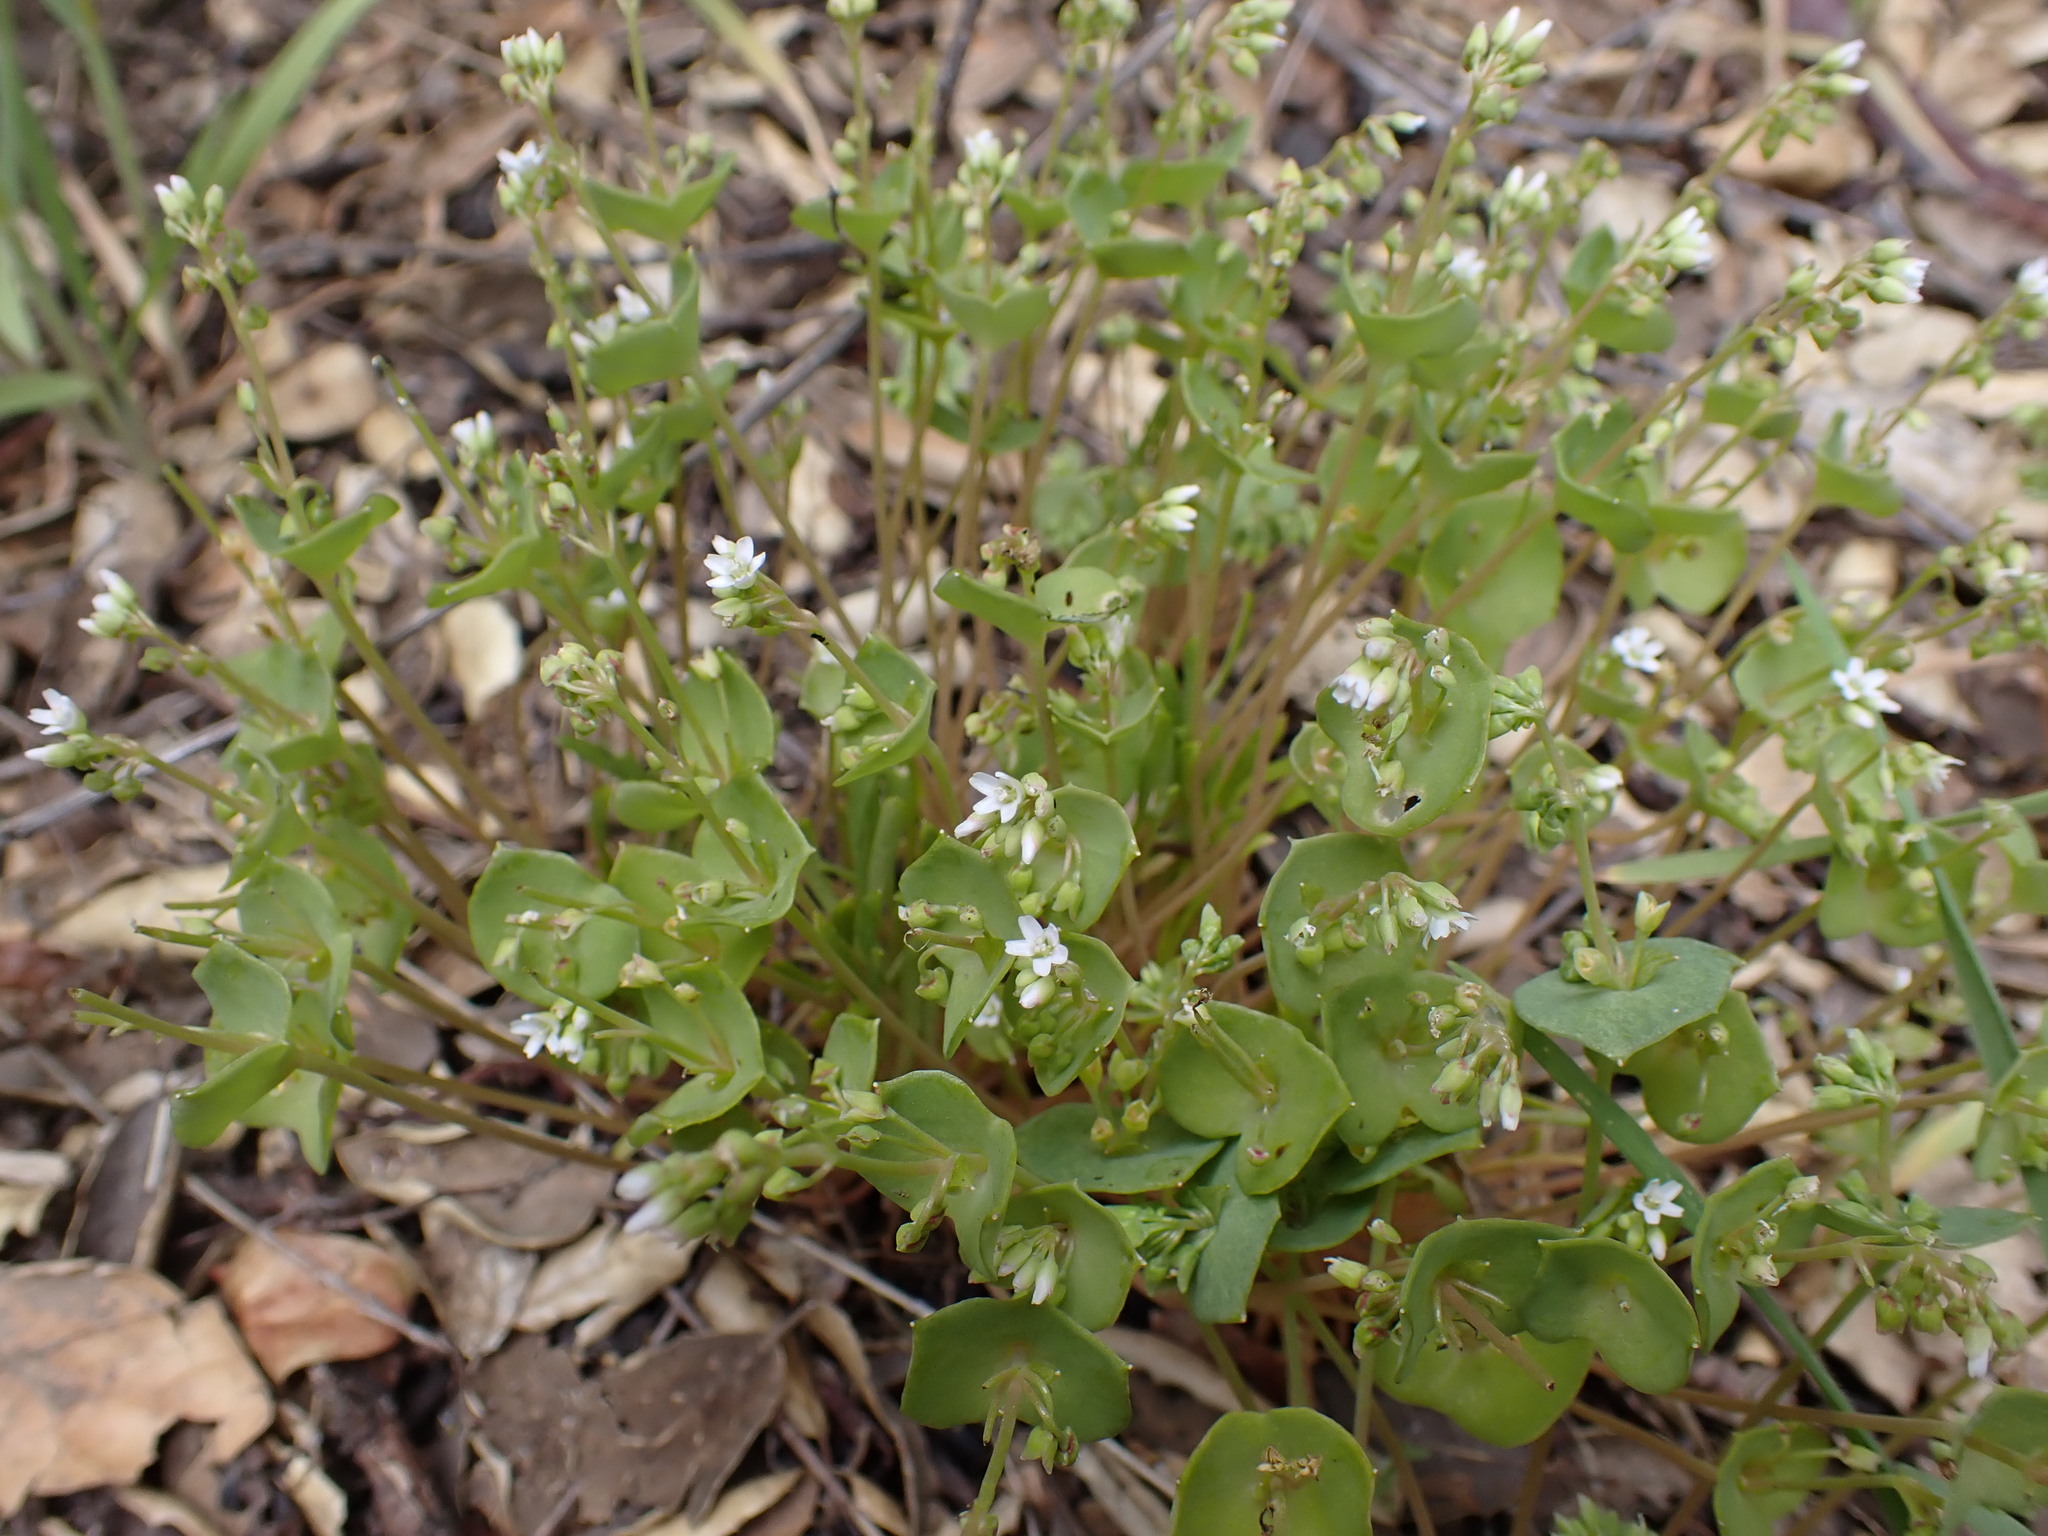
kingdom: Plantae
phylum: Tracheophyta
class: Magnoliopsida
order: Caryophyllales
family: Montiaceae
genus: Claytonia
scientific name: Claytonia parviflora
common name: Indian-lettuce
